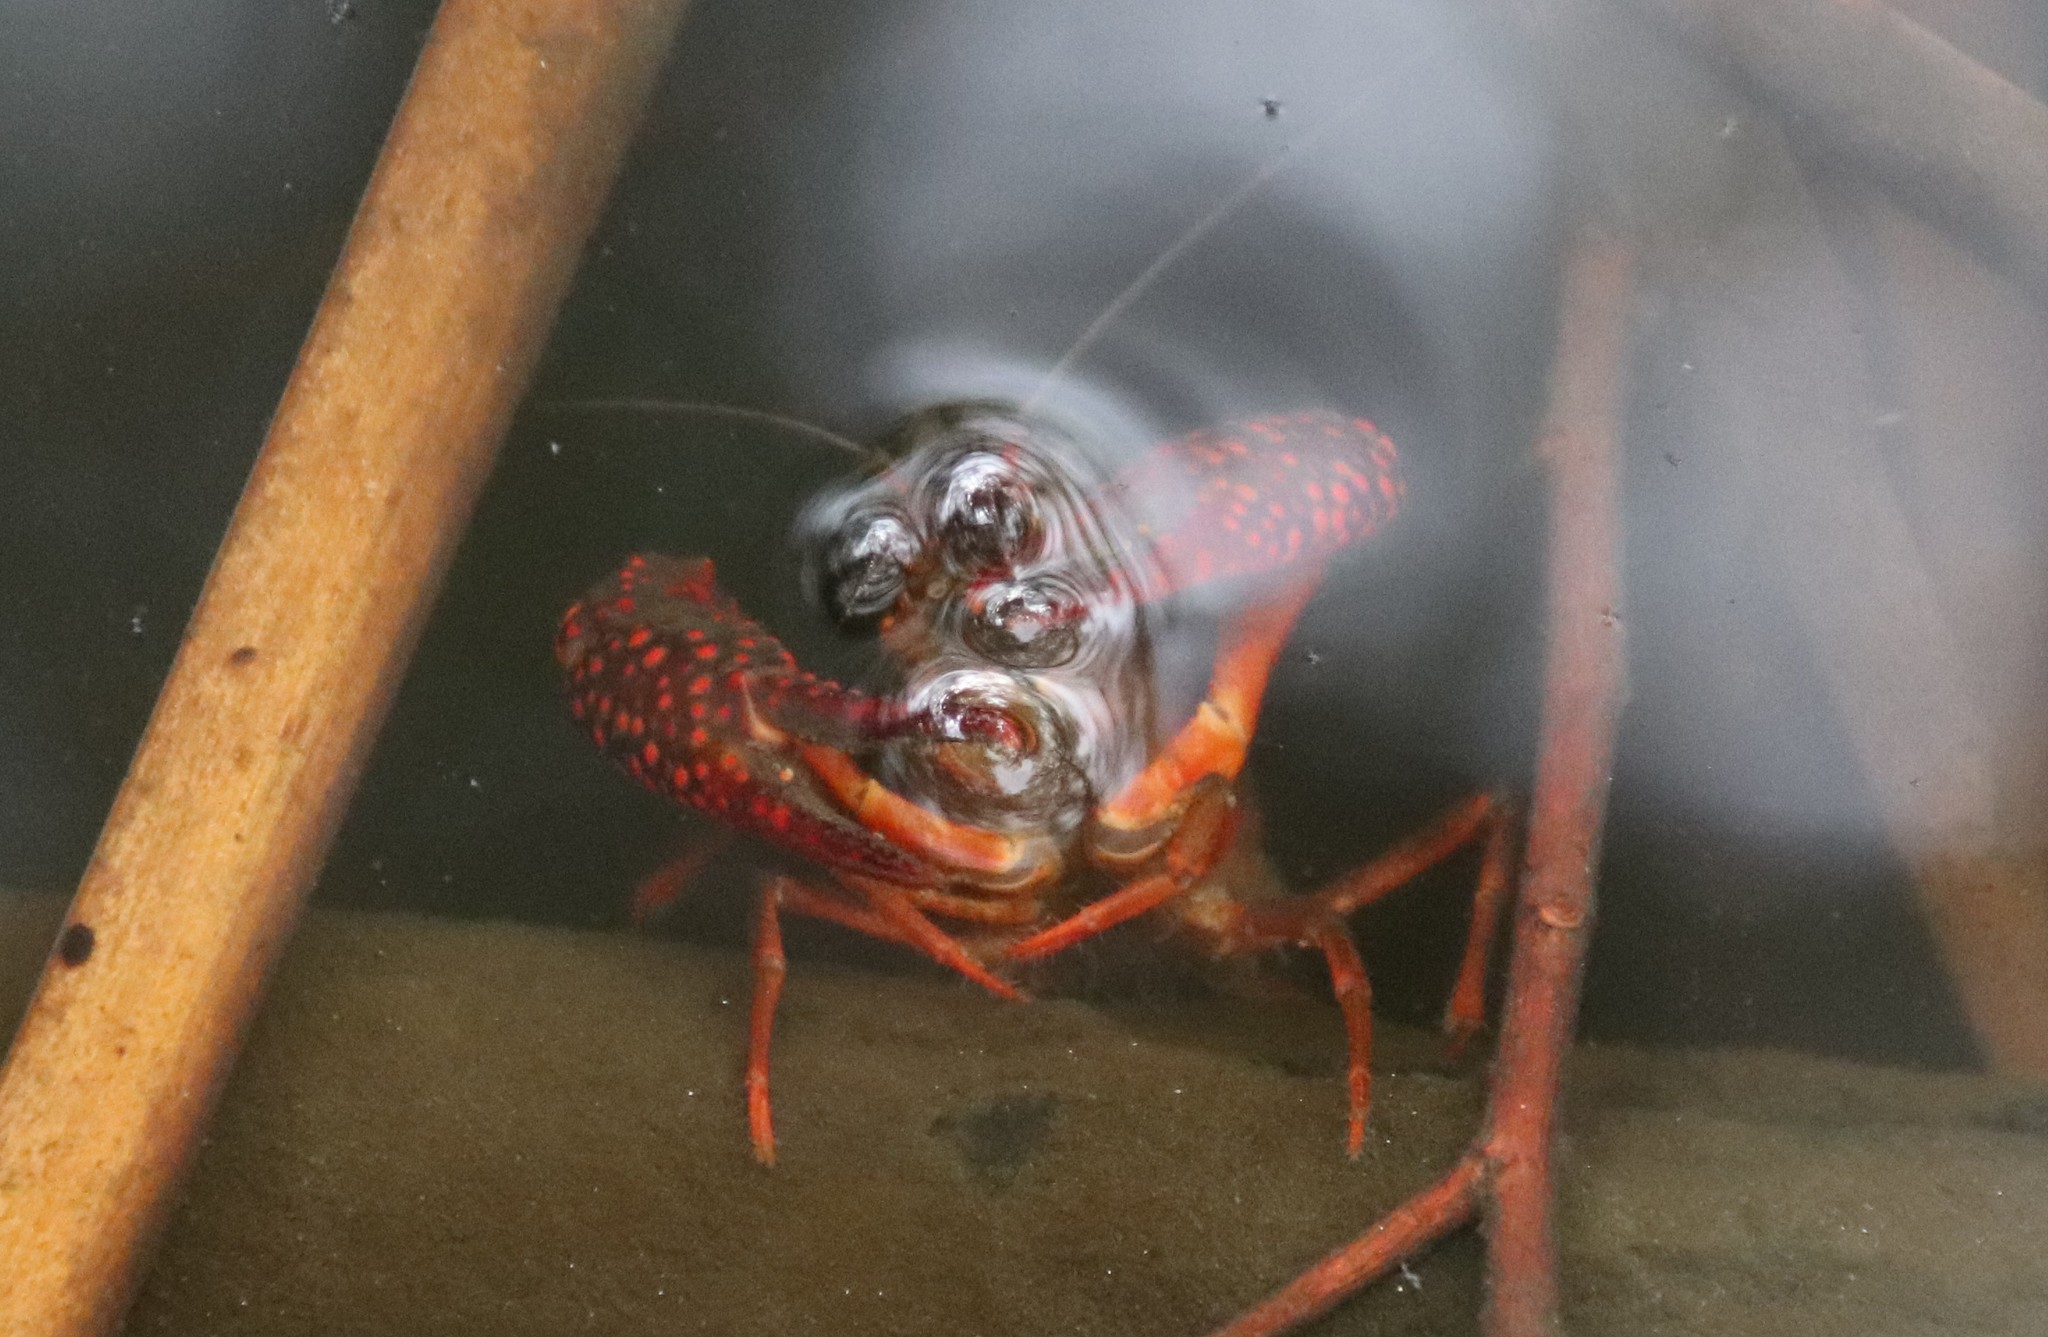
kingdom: Animalia
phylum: Arthropoda
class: Malacostraca
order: Decapoda
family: Cambaridae
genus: Procambarus
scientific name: Procambarus clarkii
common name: Red swamp crayfish
